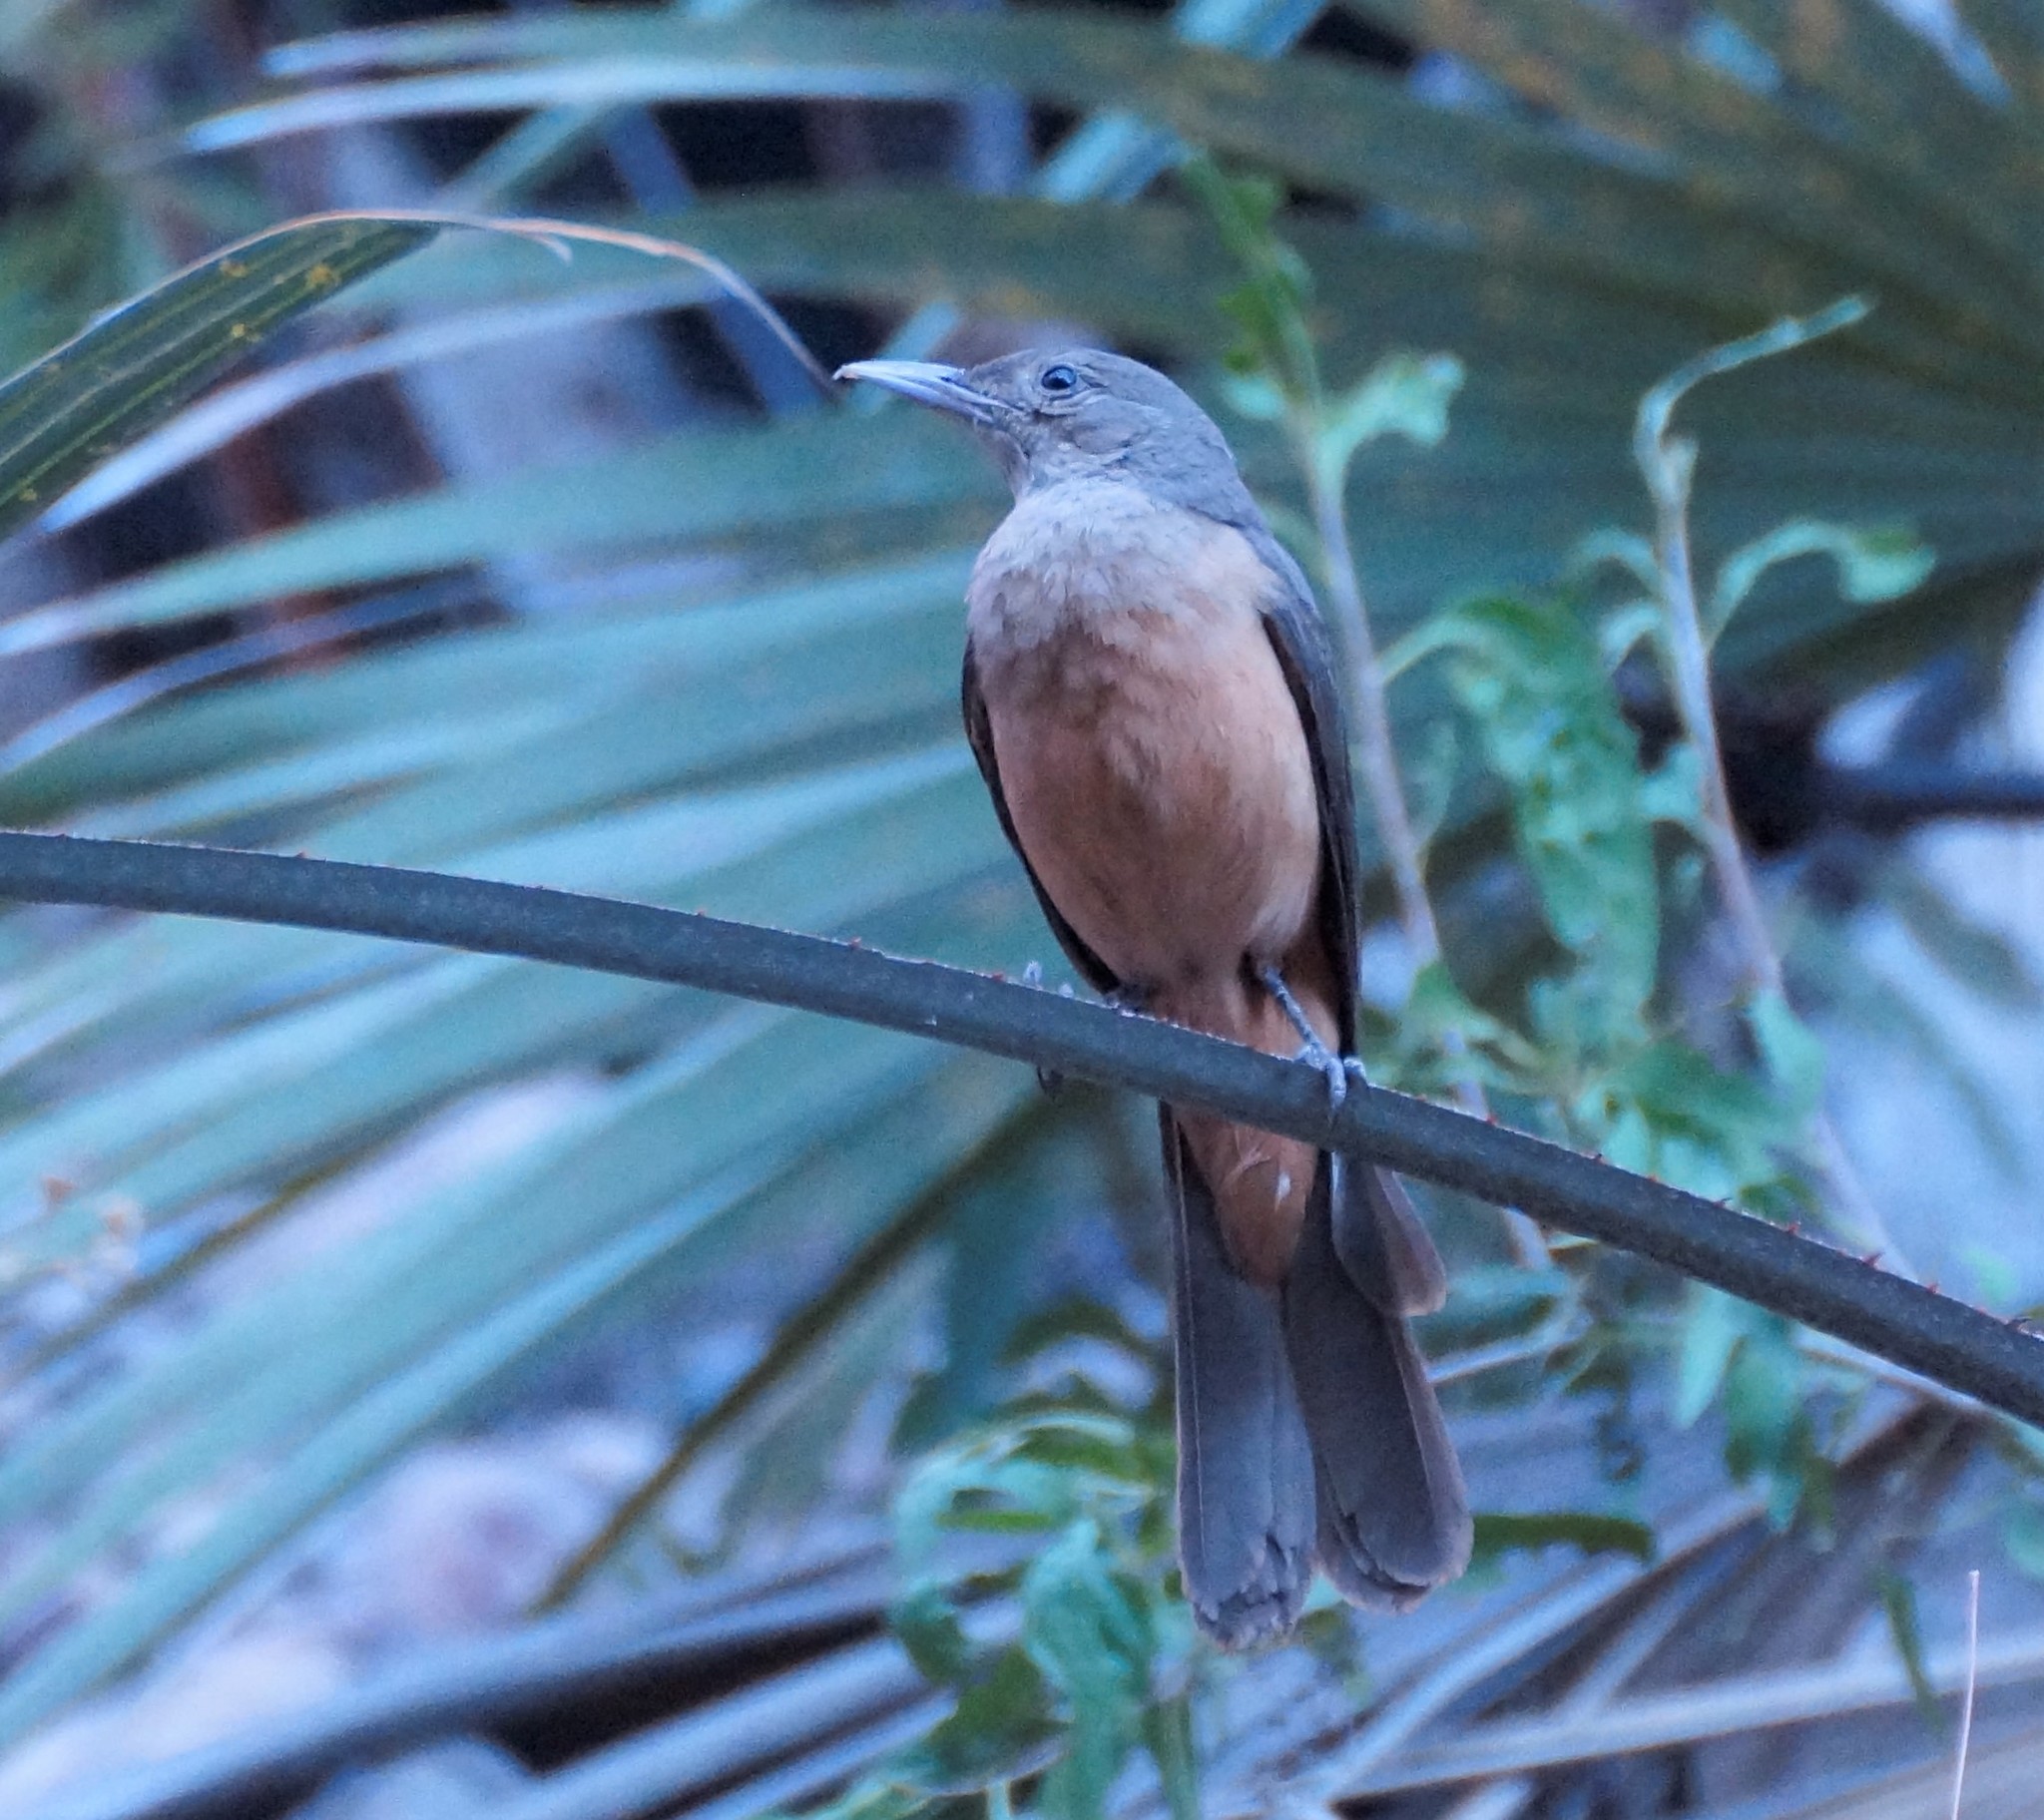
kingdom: Animalia
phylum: Chordata
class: Aves
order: Passeriformes
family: Pachycephalidae
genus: Colluricincla
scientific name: Colluricincla woodwardi
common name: Sandstone shrikethrush
